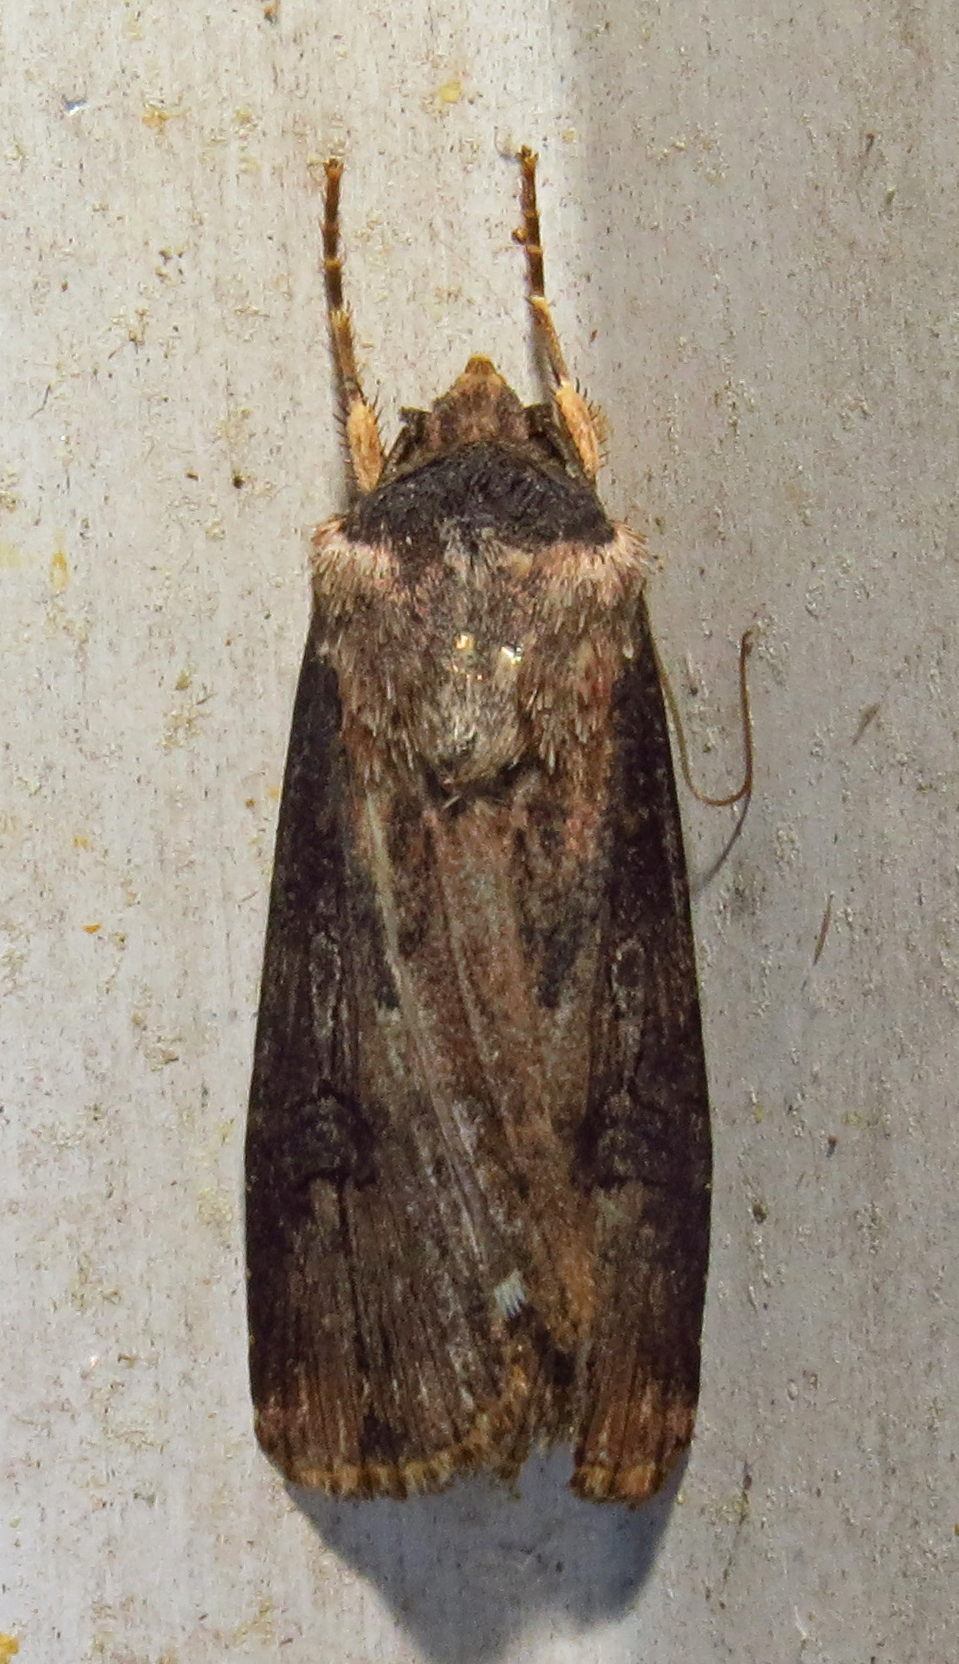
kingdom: Animalia
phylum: Arthropoda
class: Insecta
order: Lepidoptera
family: Noctuidae
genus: Agrotis
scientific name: Agrotis ipsilon
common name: Dark sword-grass
